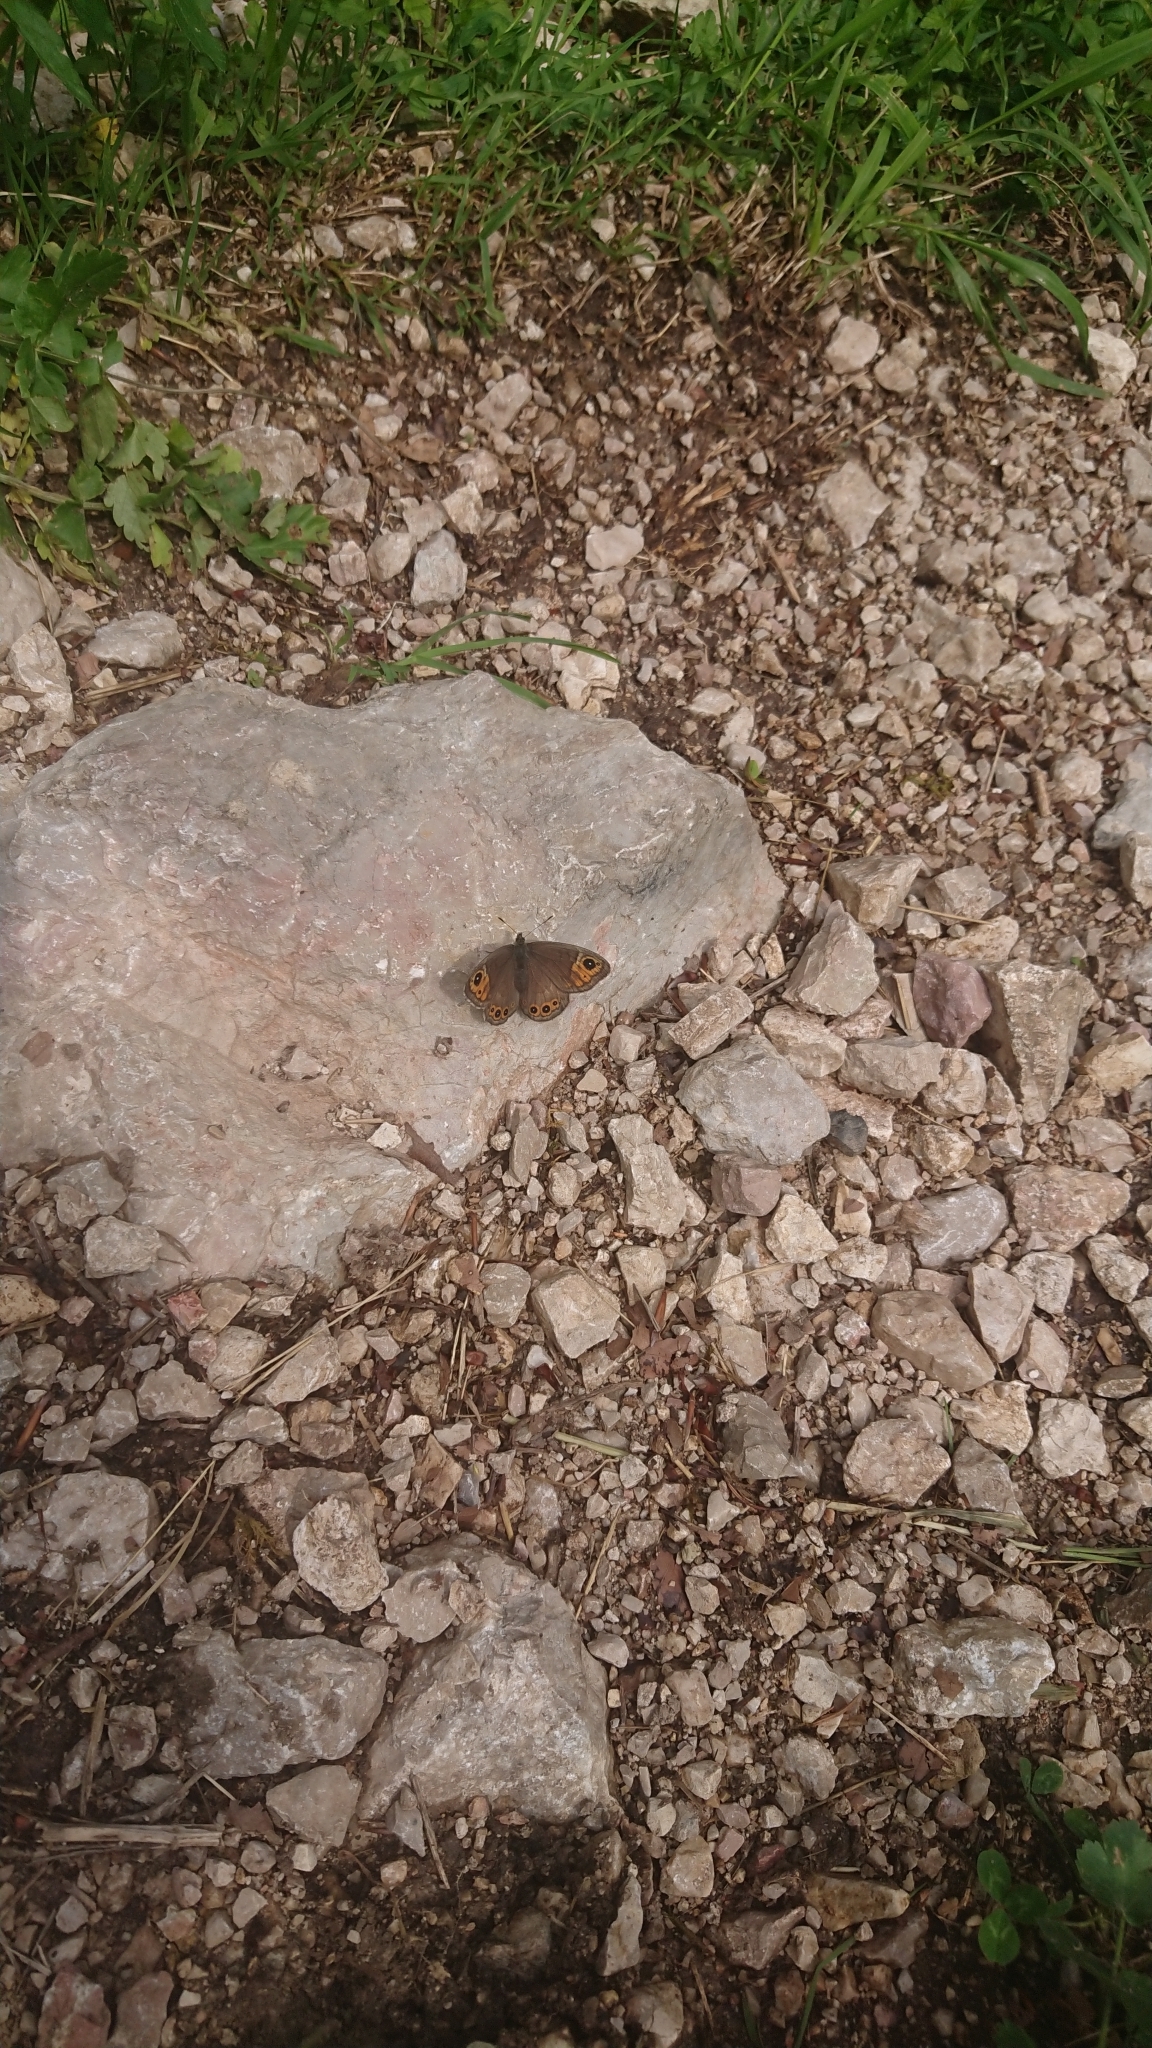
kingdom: Animalia
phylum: Arthropoda
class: Insecta
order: Lepidoptera
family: Nymphalidae
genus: Pararge
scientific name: Pararge petropolitana
